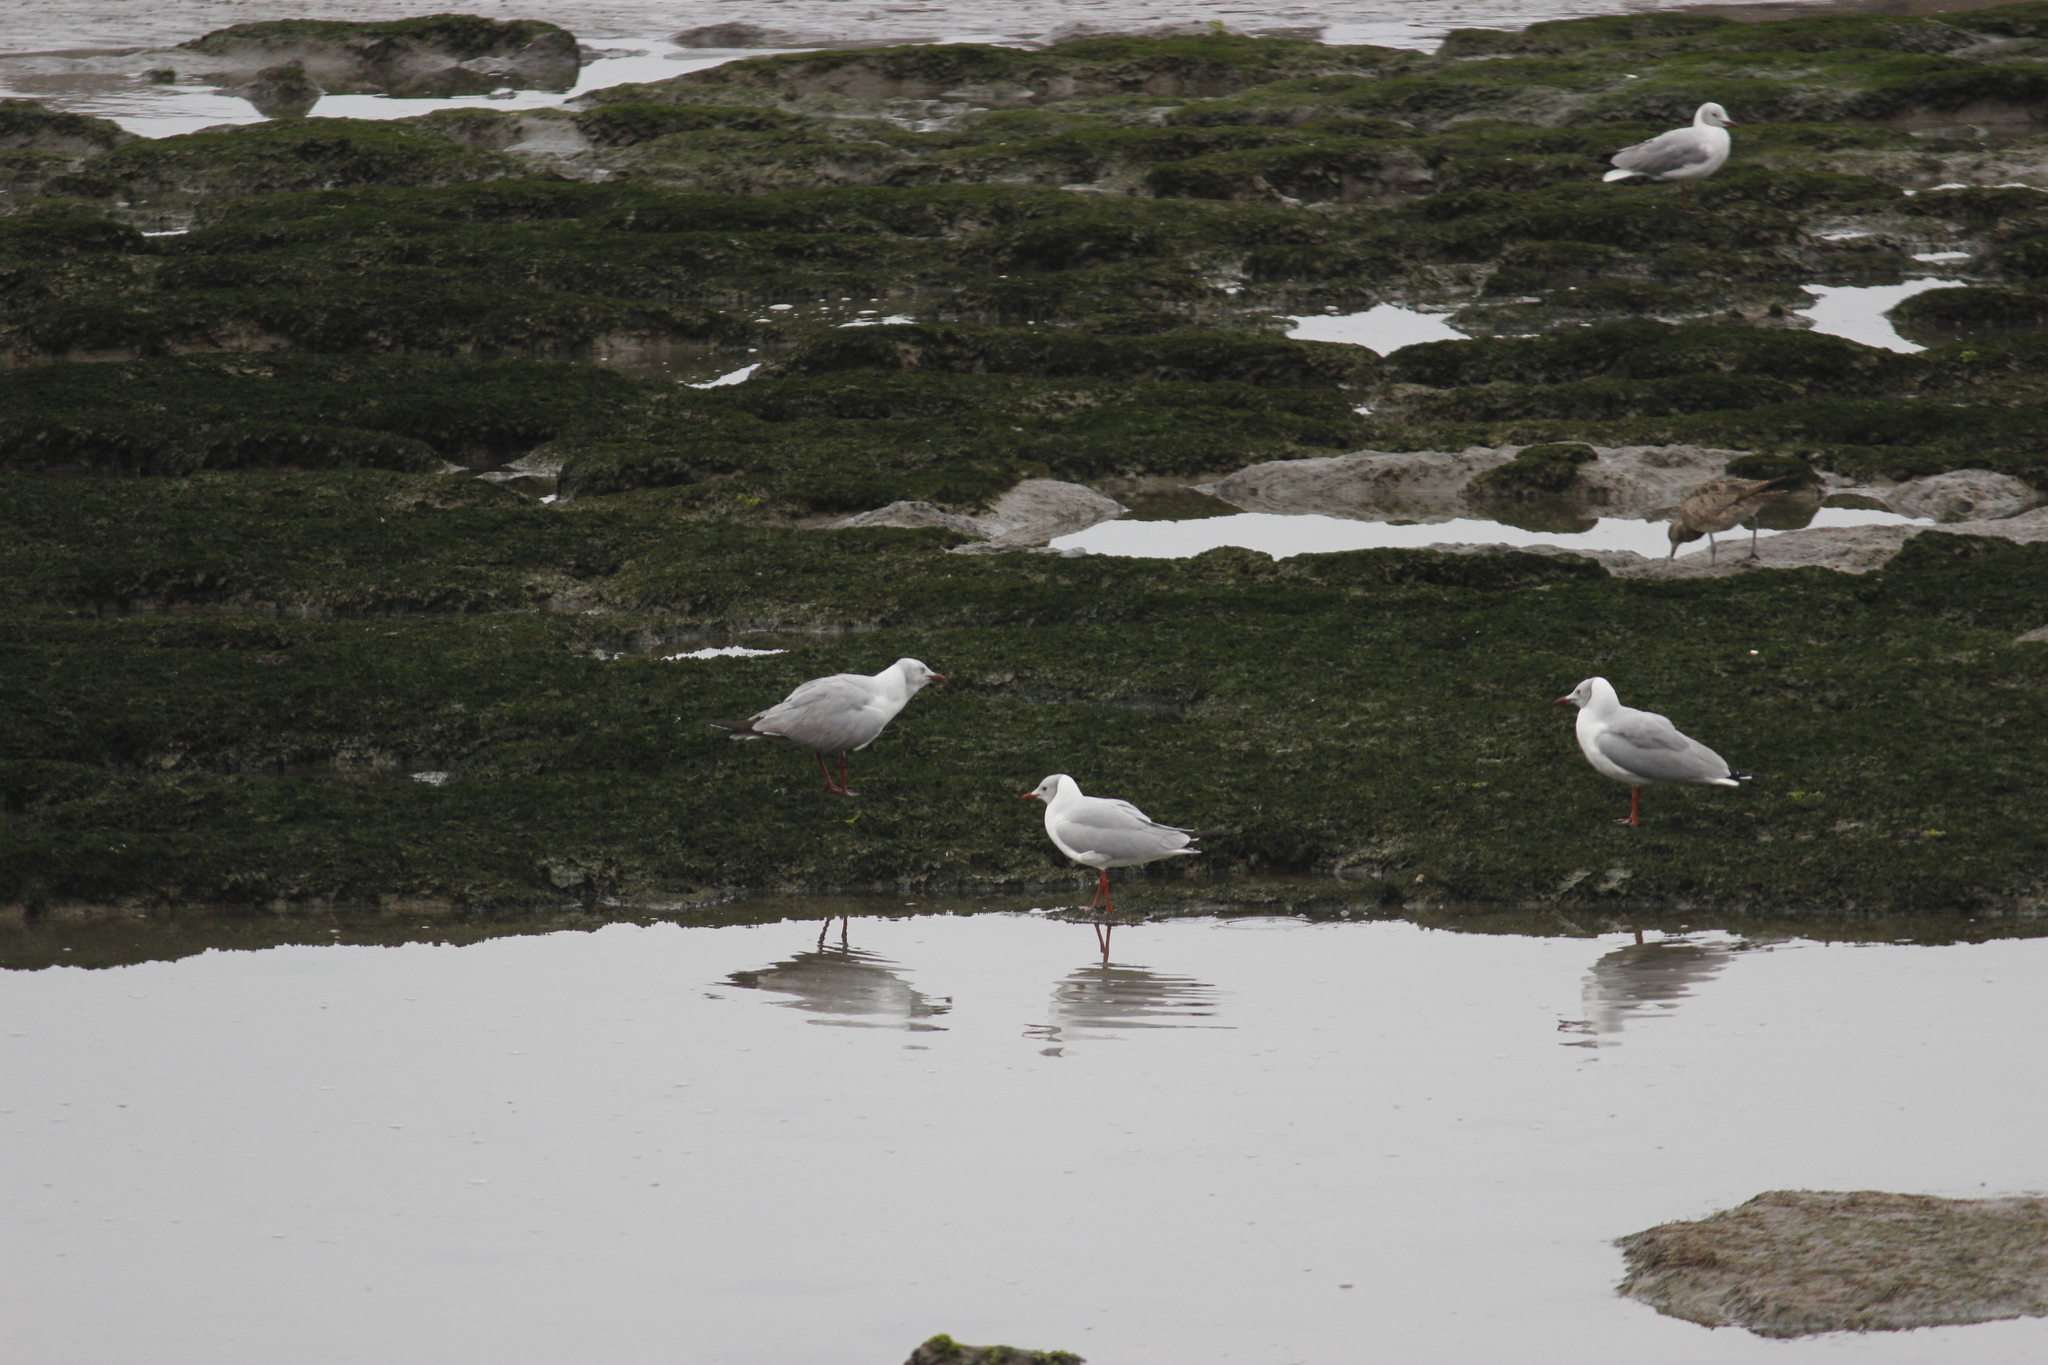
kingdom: Animalia
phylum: Chordata
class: Aves
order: Charadriiformes
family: Laridae
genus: Chroicocephalus
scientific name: Chroicocephalus cirrocephalus
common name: Grey-headed gull
